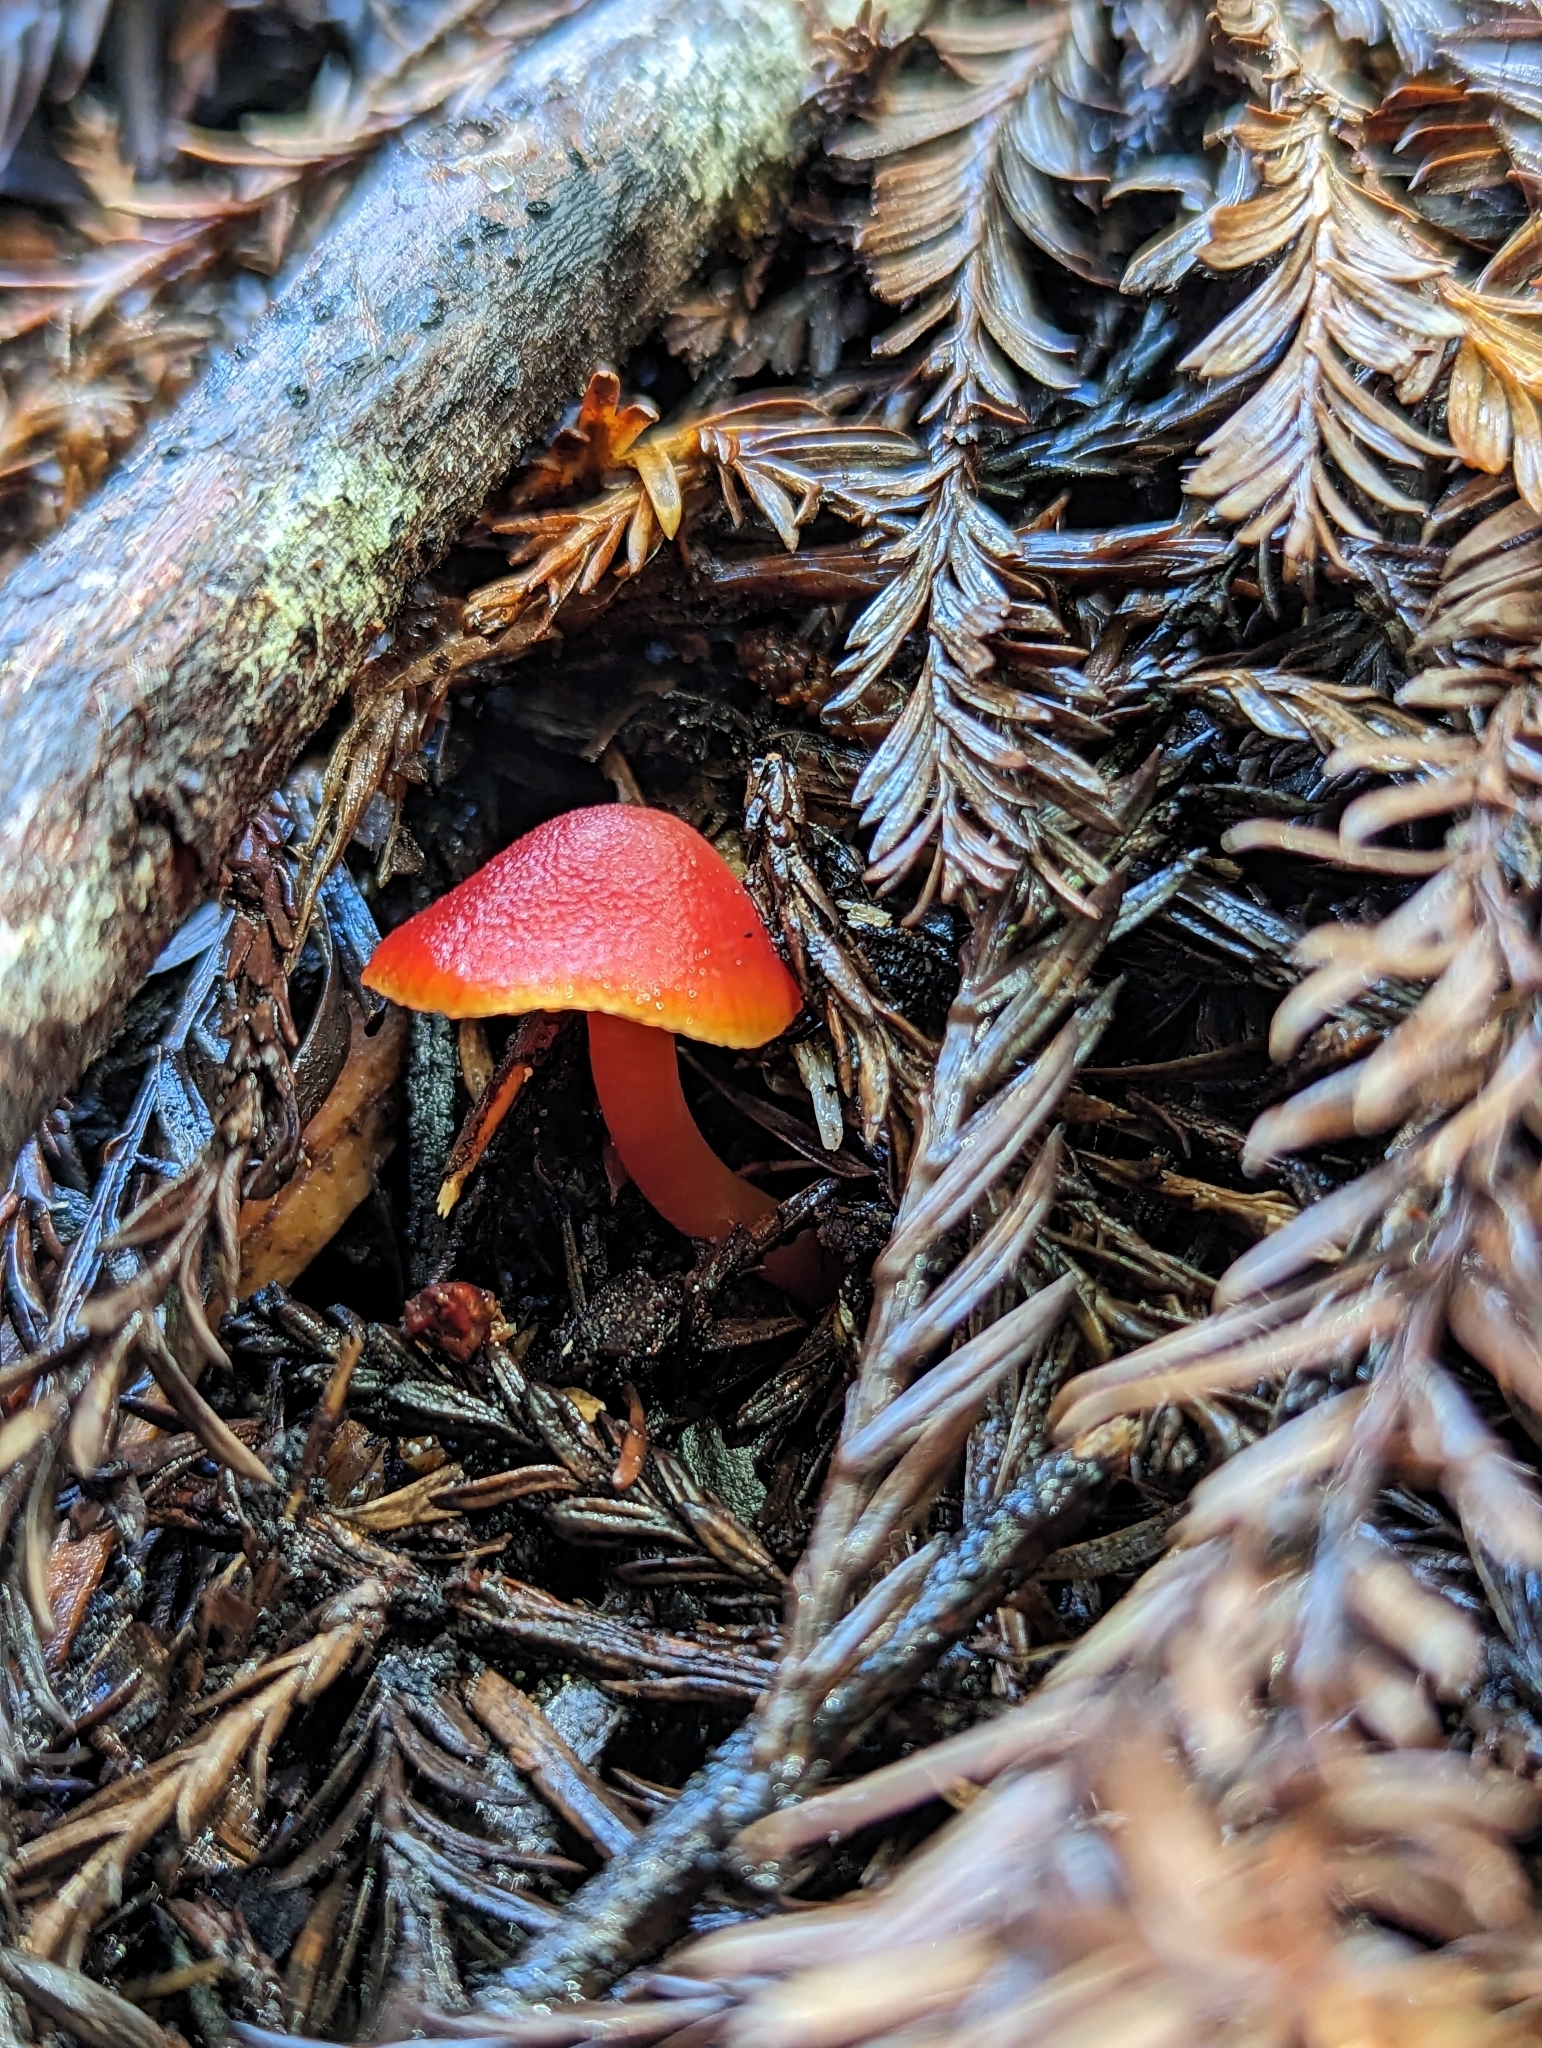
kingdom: Fungi
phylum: Basidiomycota
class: Agaricomycetes
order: Agaricales
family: Hygrophoraceae
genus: Hygrocybe
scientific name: Hygrocybe coccinea
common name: Scarlet hood
